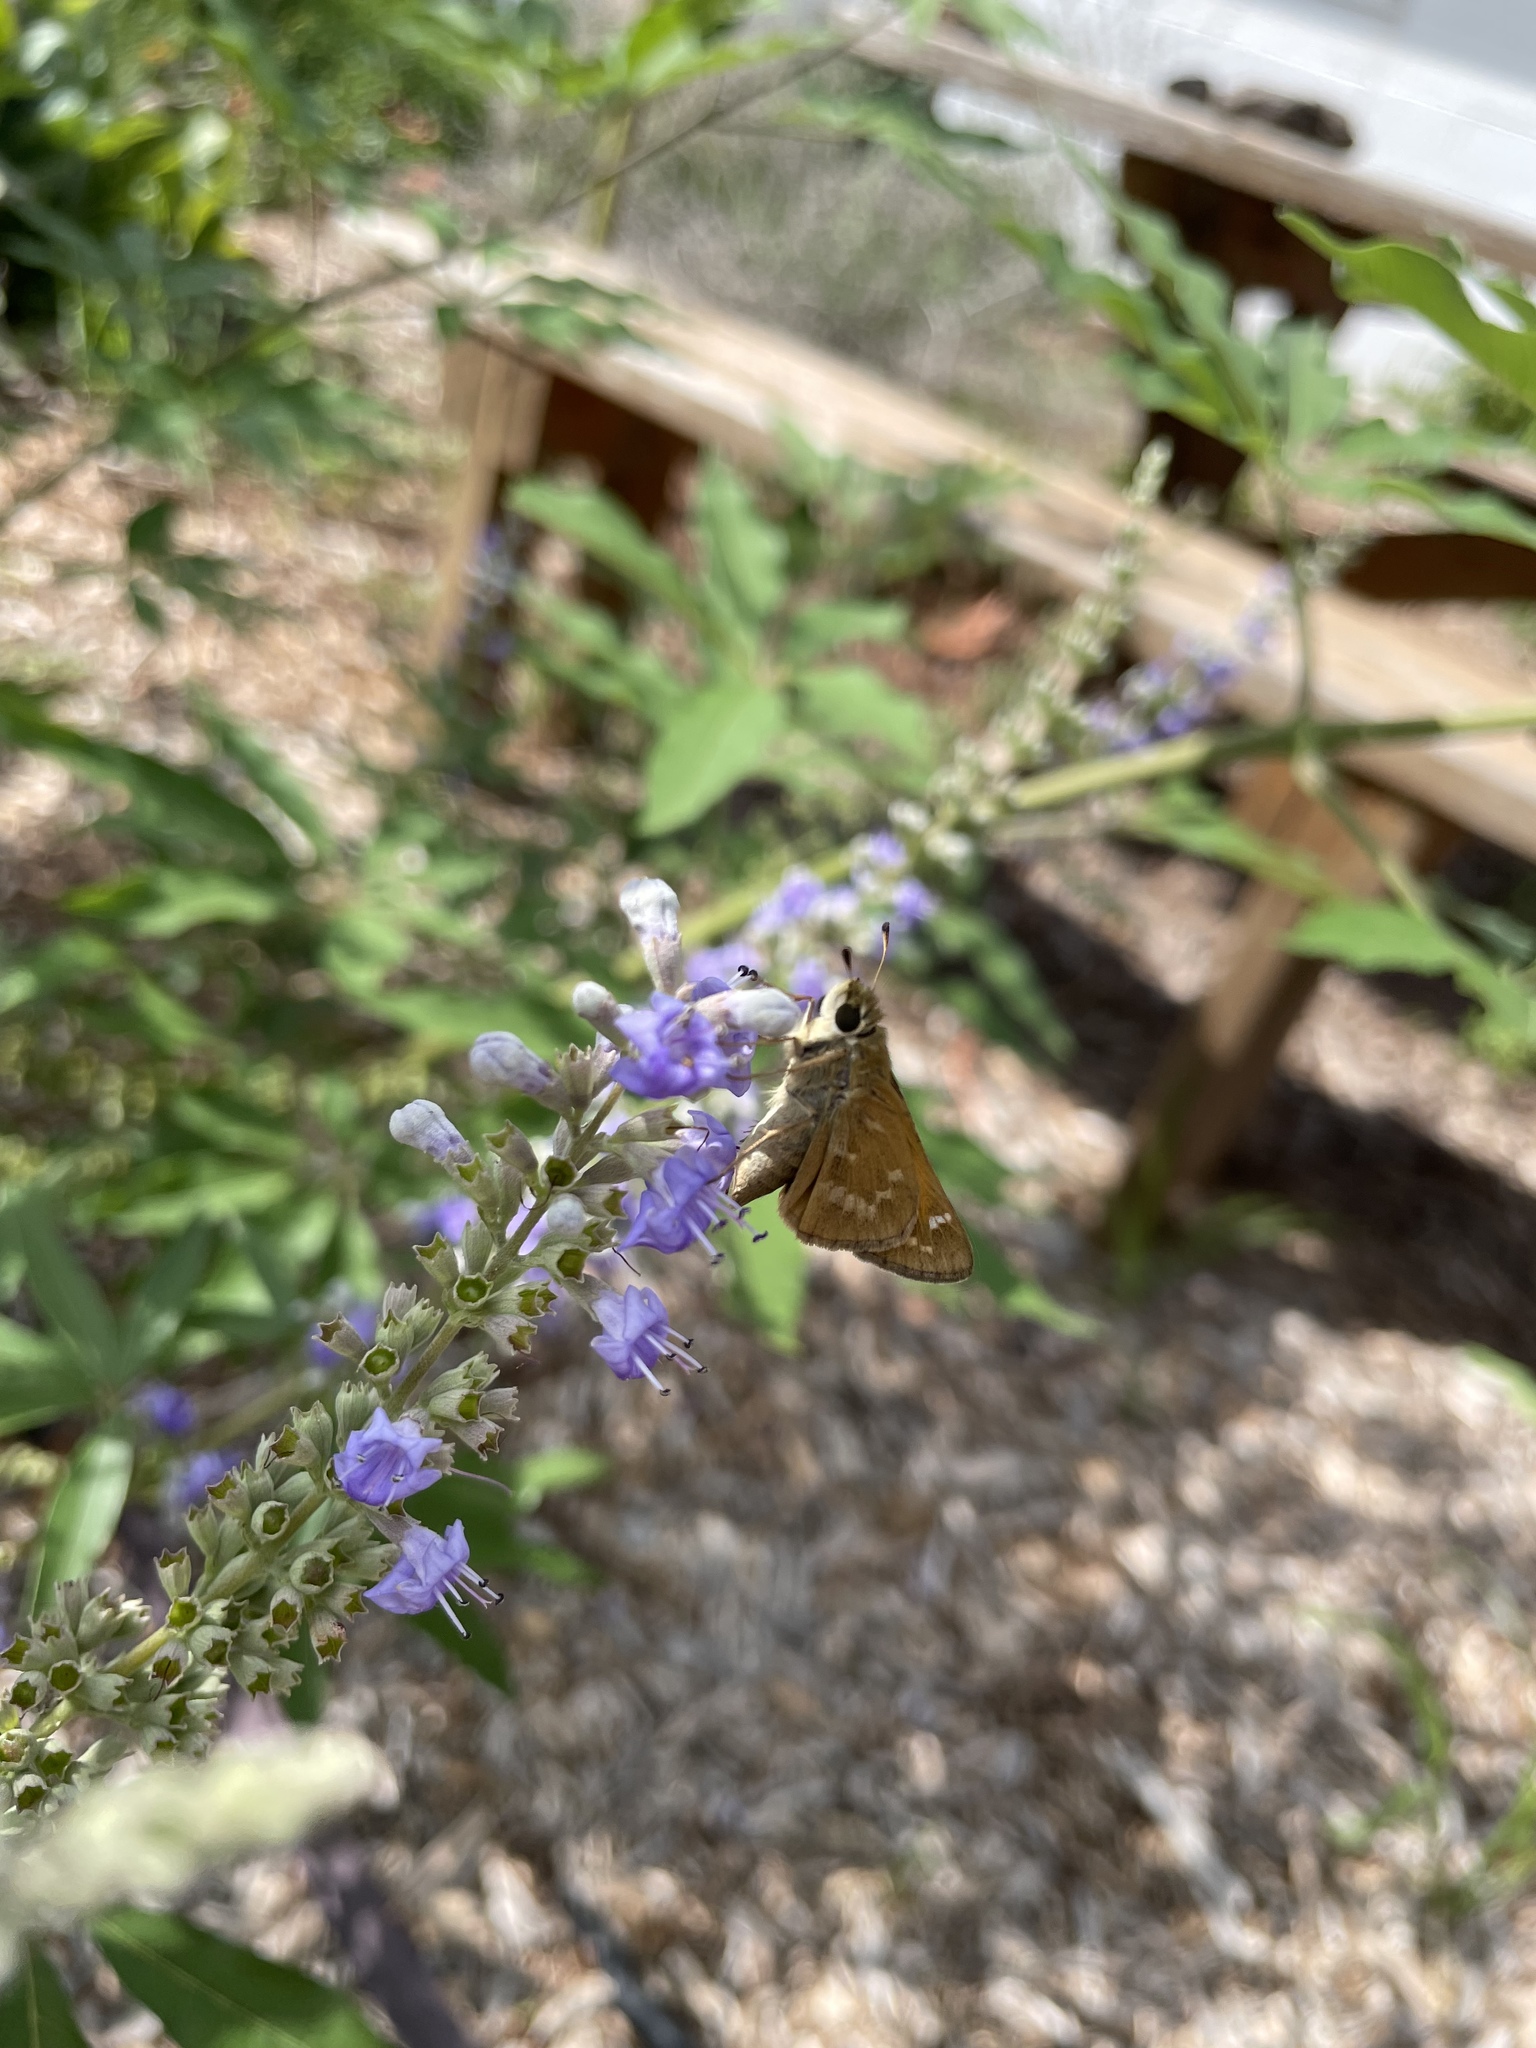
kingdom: Animalia
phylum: Arthropoda
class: Insecta
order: Lepidoptera
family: Hesperiidae
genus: Atalopedes
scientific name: Atalopedes
